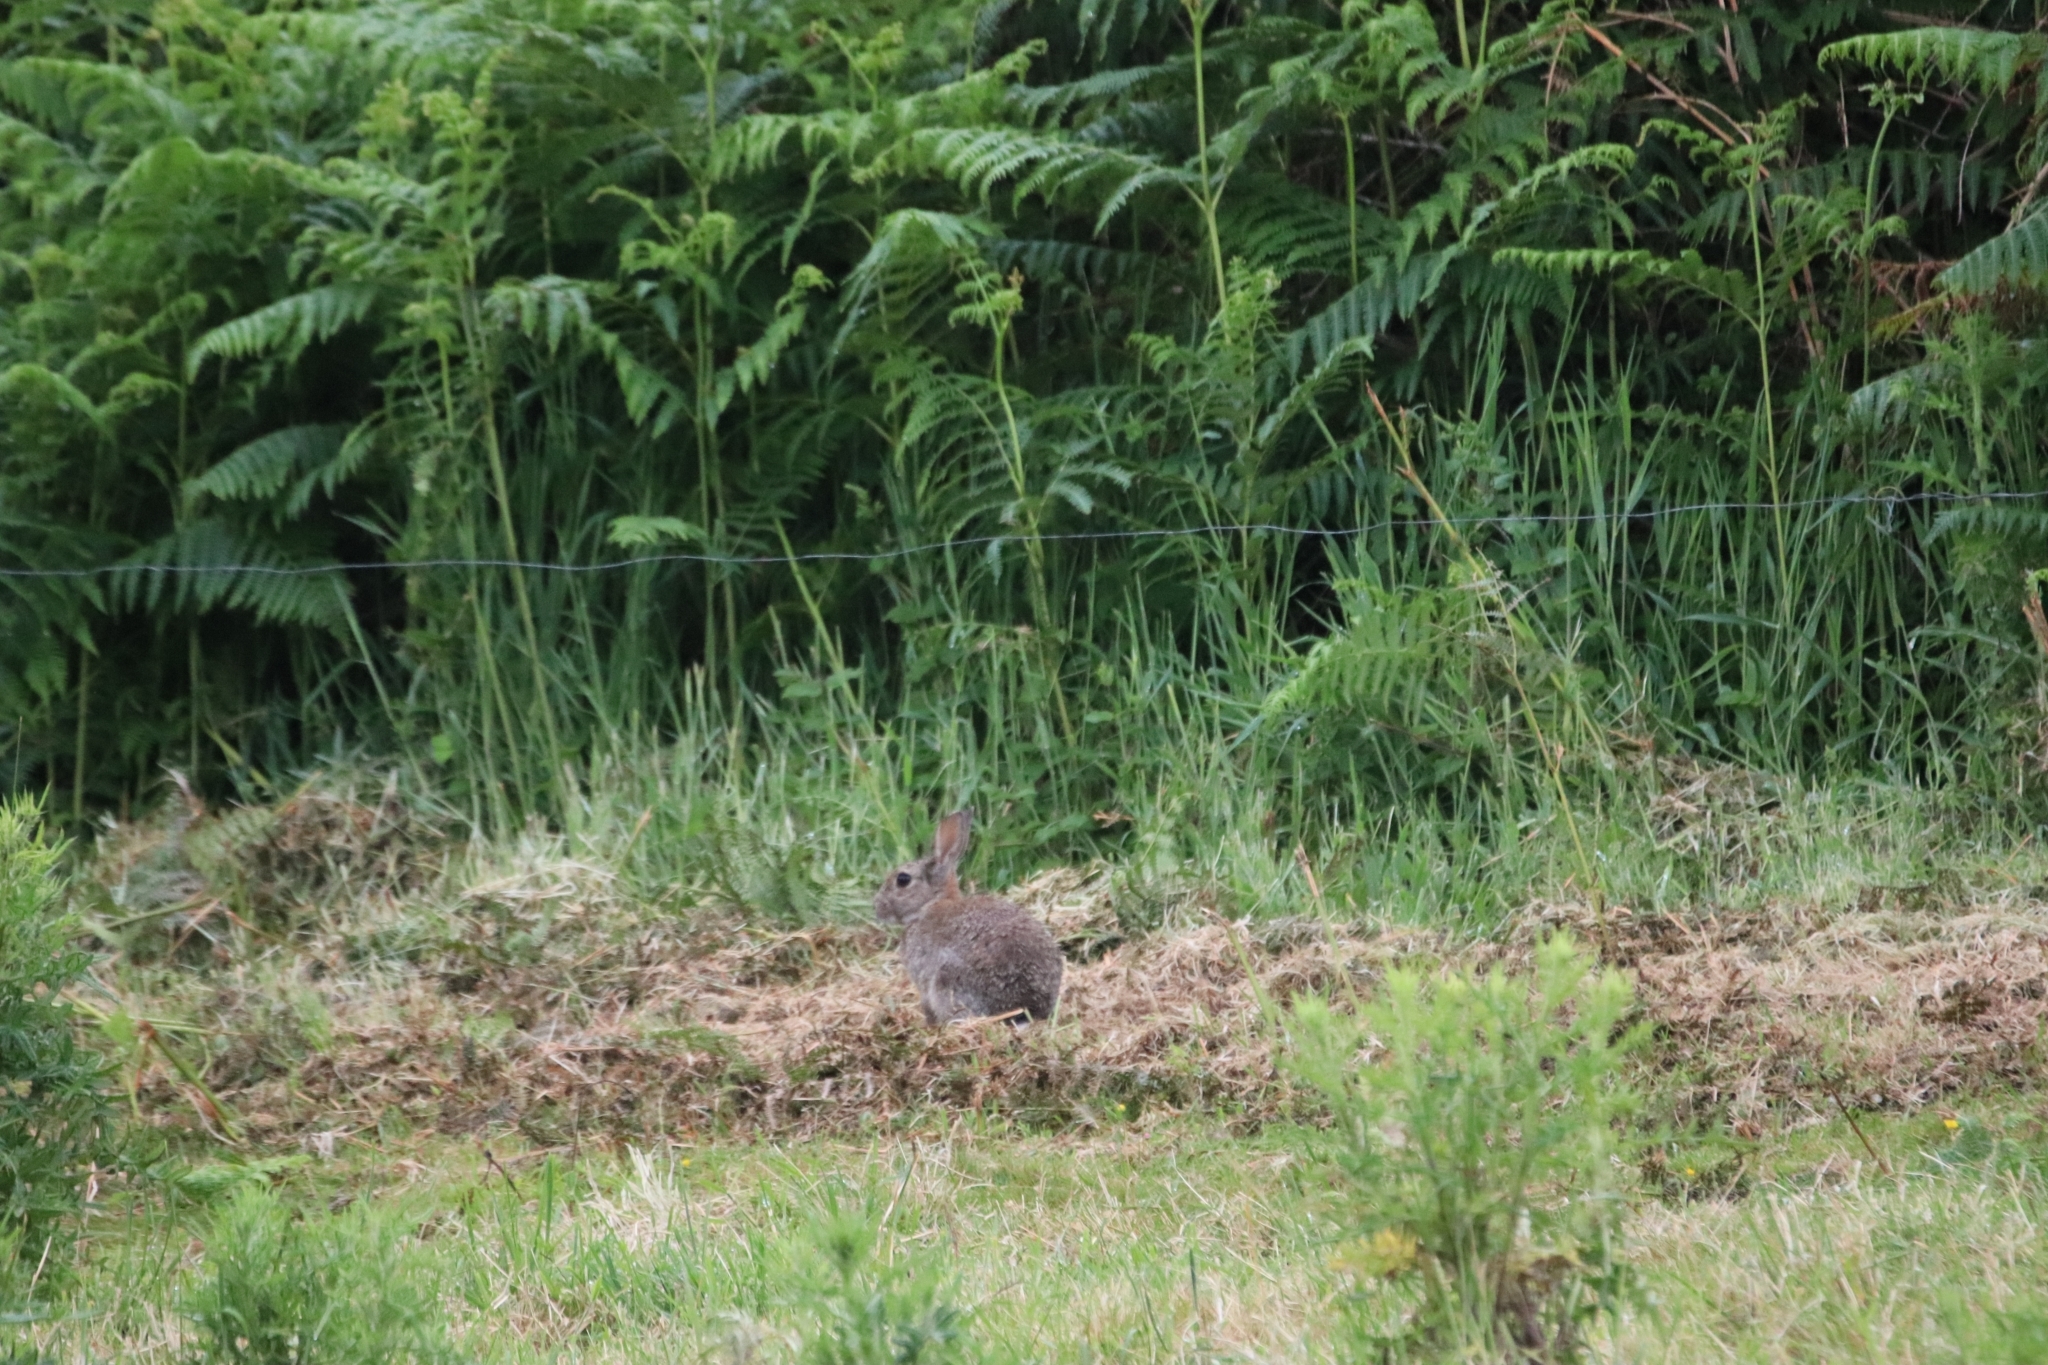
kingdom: Animalia
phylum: Chordata
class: Mammalia
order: Lagomorpha
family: Leporidae
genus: Oryctolagus
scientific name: Oryctolagus cuniculus
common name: European rabbit
